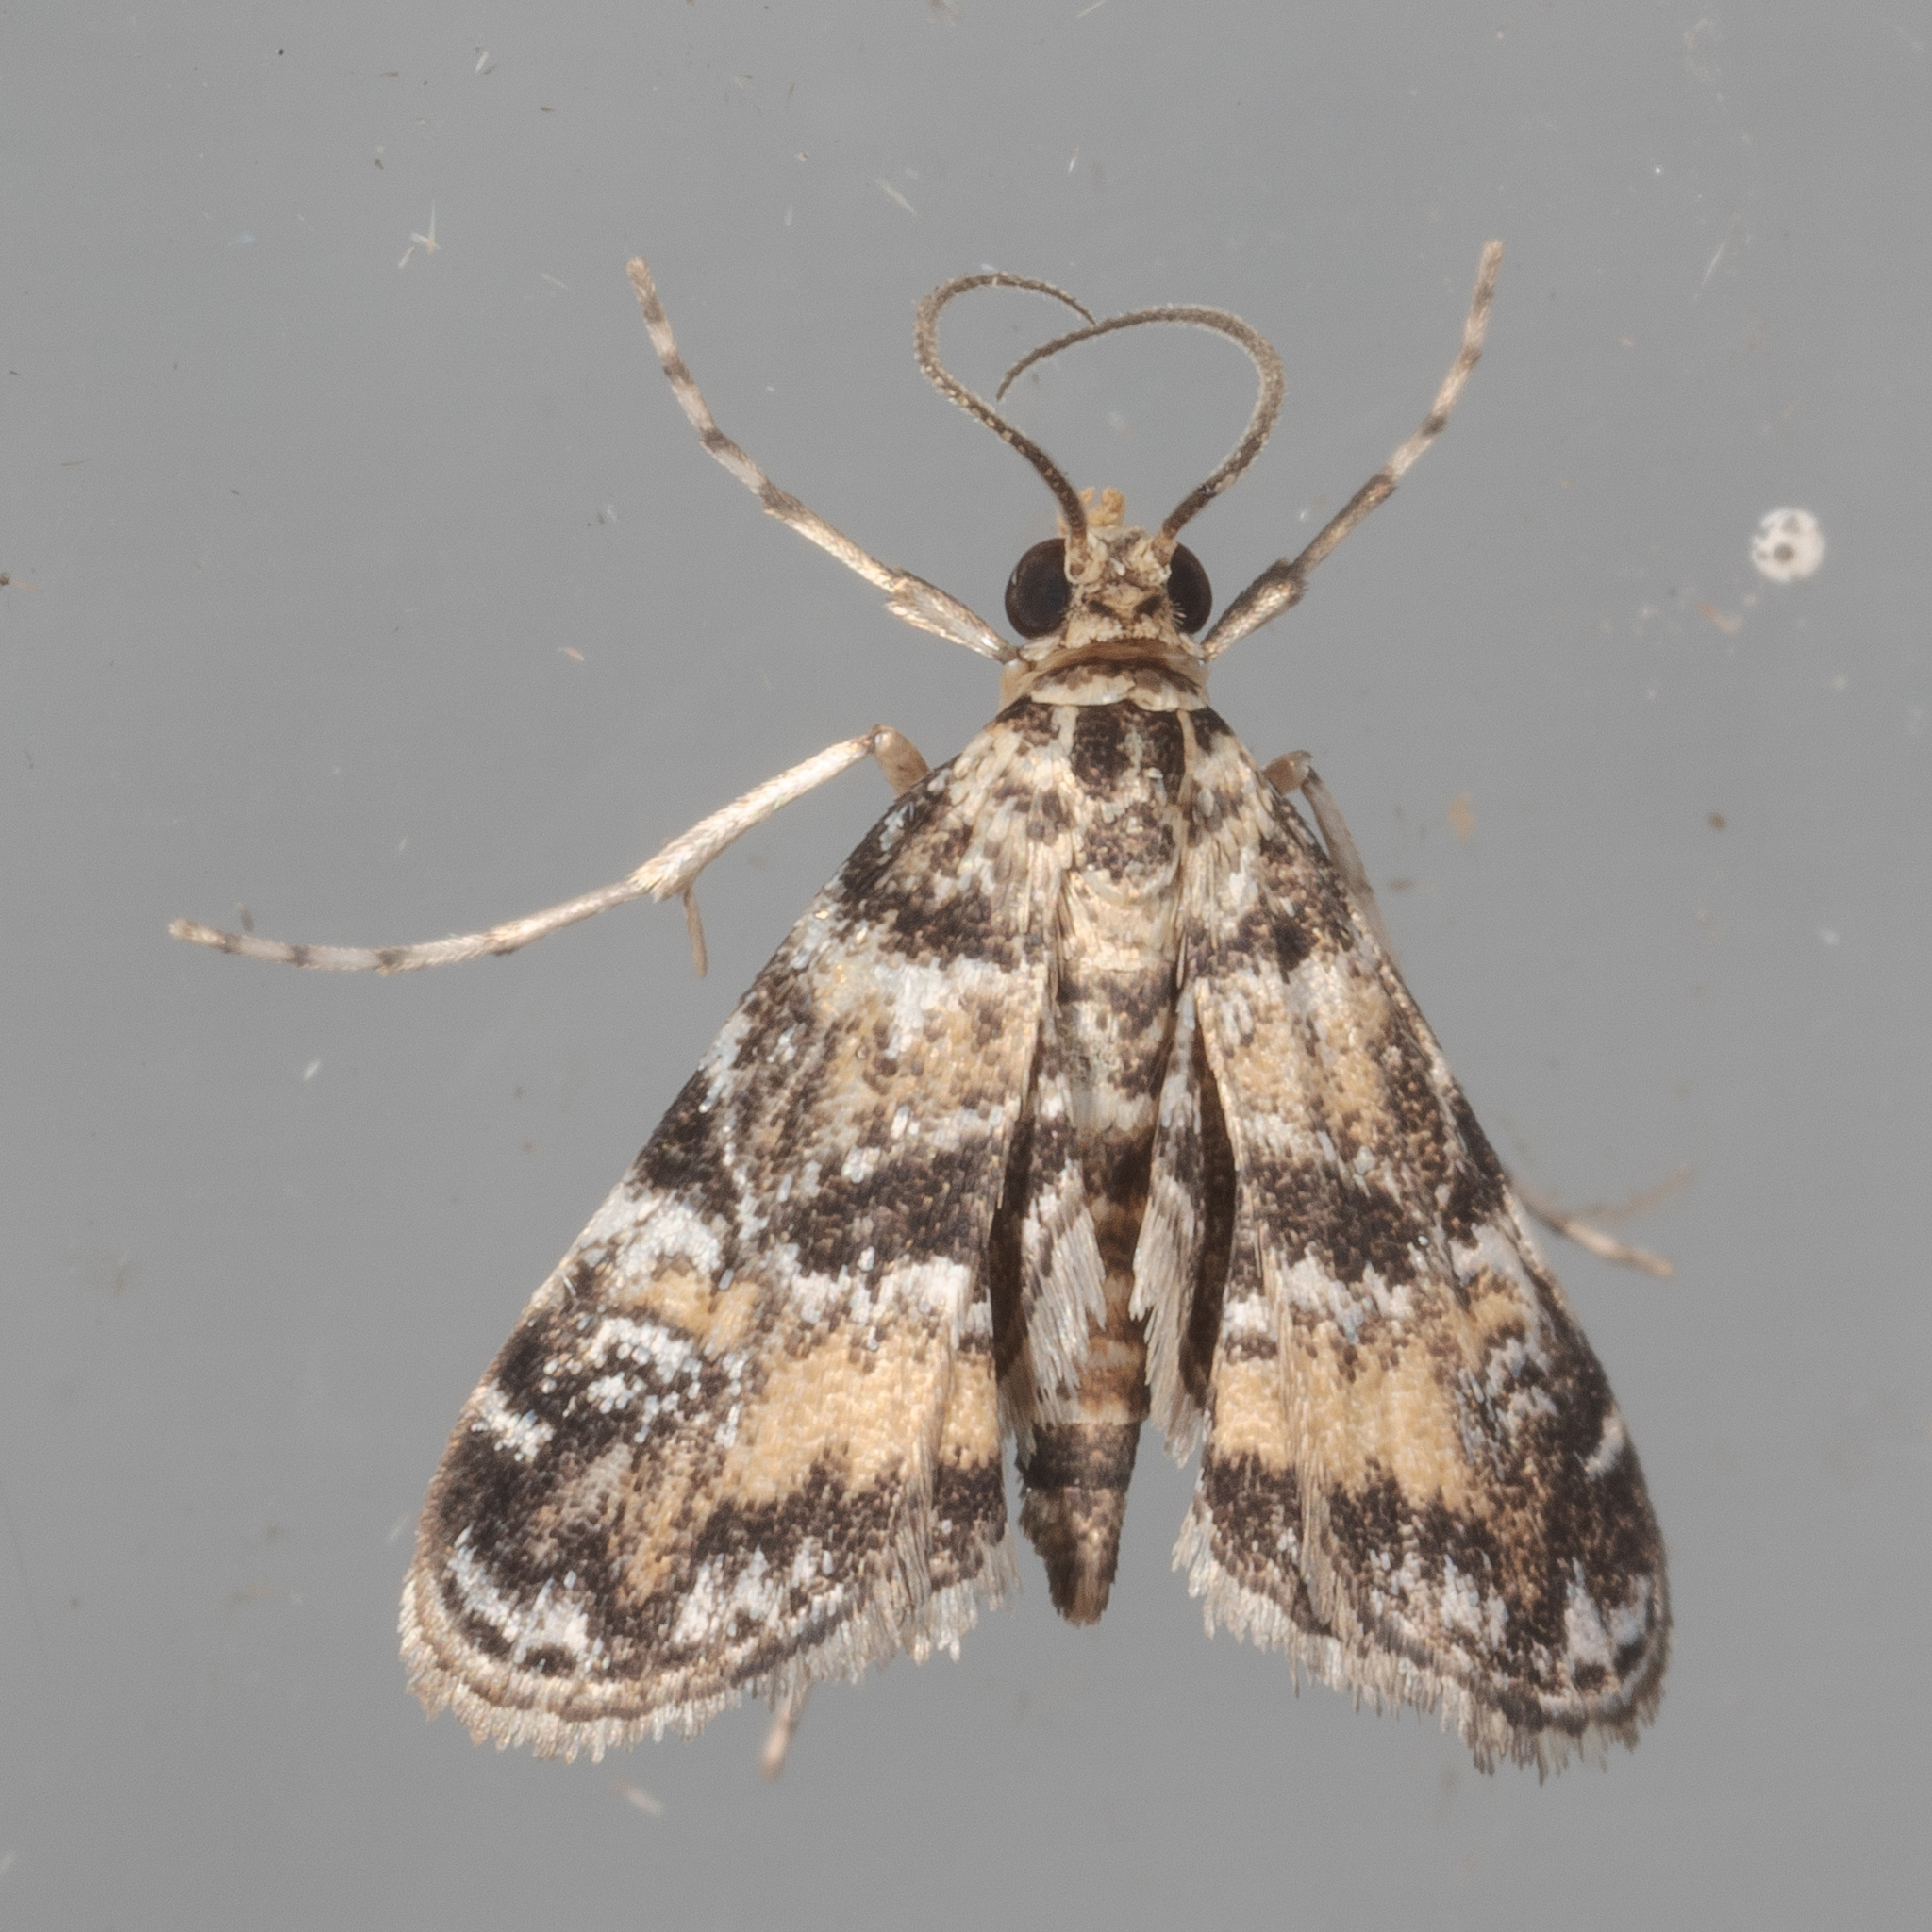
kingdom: Animalia
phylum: Arthropoda
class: Insecta
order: Lepidoptera
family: Crambidae
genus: Elophila
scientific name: Elophila obliteralis
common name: Waterlily leafcutter moth
